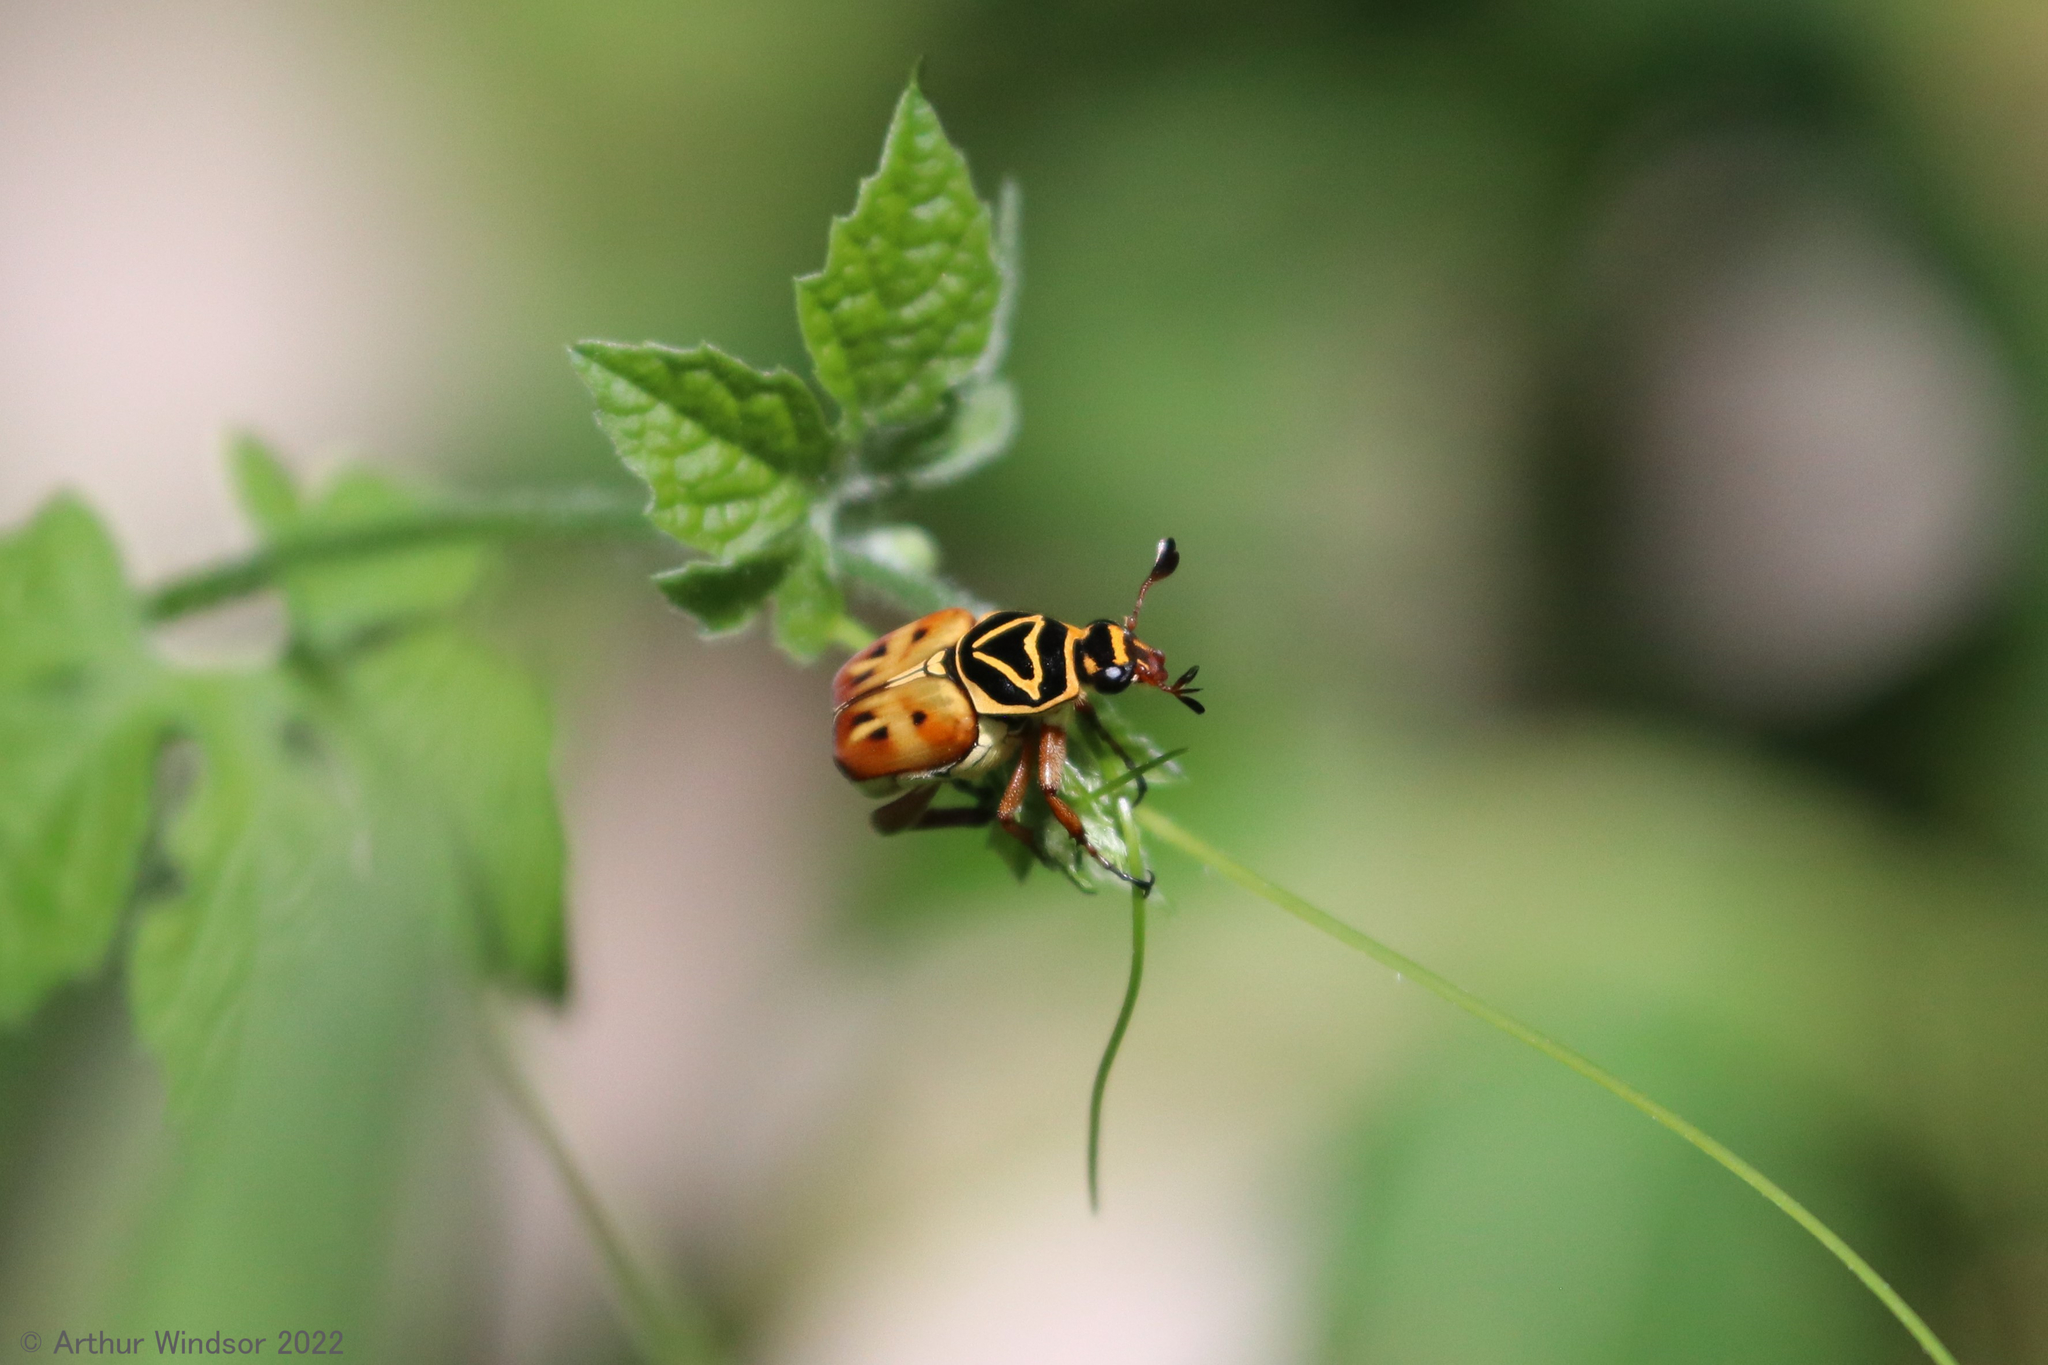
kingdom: Animalia
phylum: Arthropoda
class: Insecta
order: Coleoptera
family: Scarabaeidae
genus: Trigonopeltastes
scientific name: Trigonopeltastes delta
